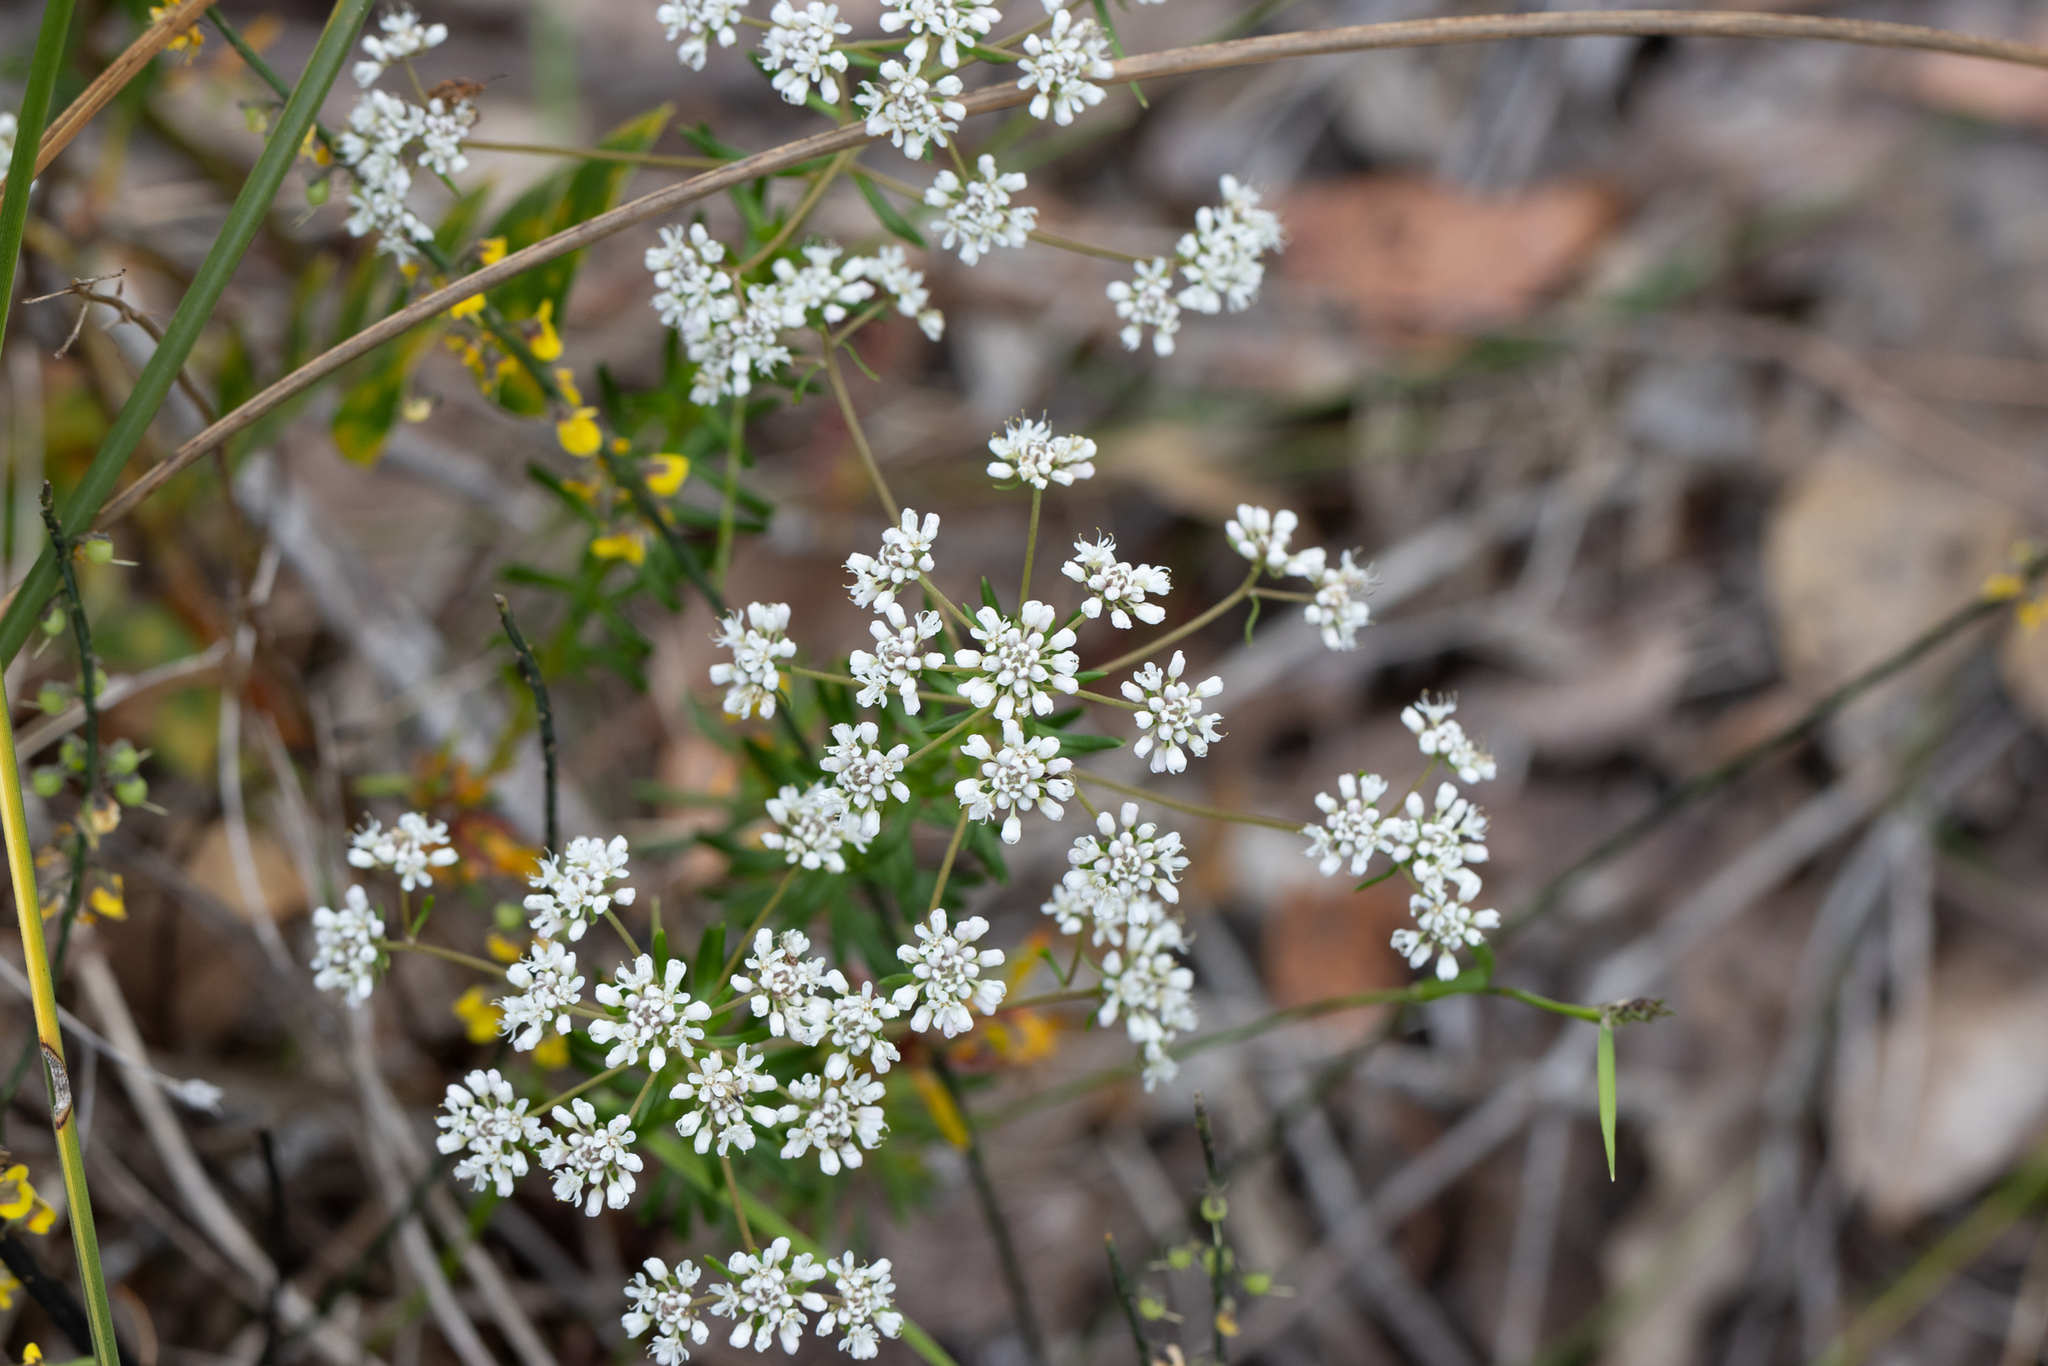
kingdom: Plantae
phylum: Tracheophyta
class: Magnoliopsida
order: Malpighiales
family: Phyllanthaceae
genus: Poranthera
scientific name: Poranthera huegelii
